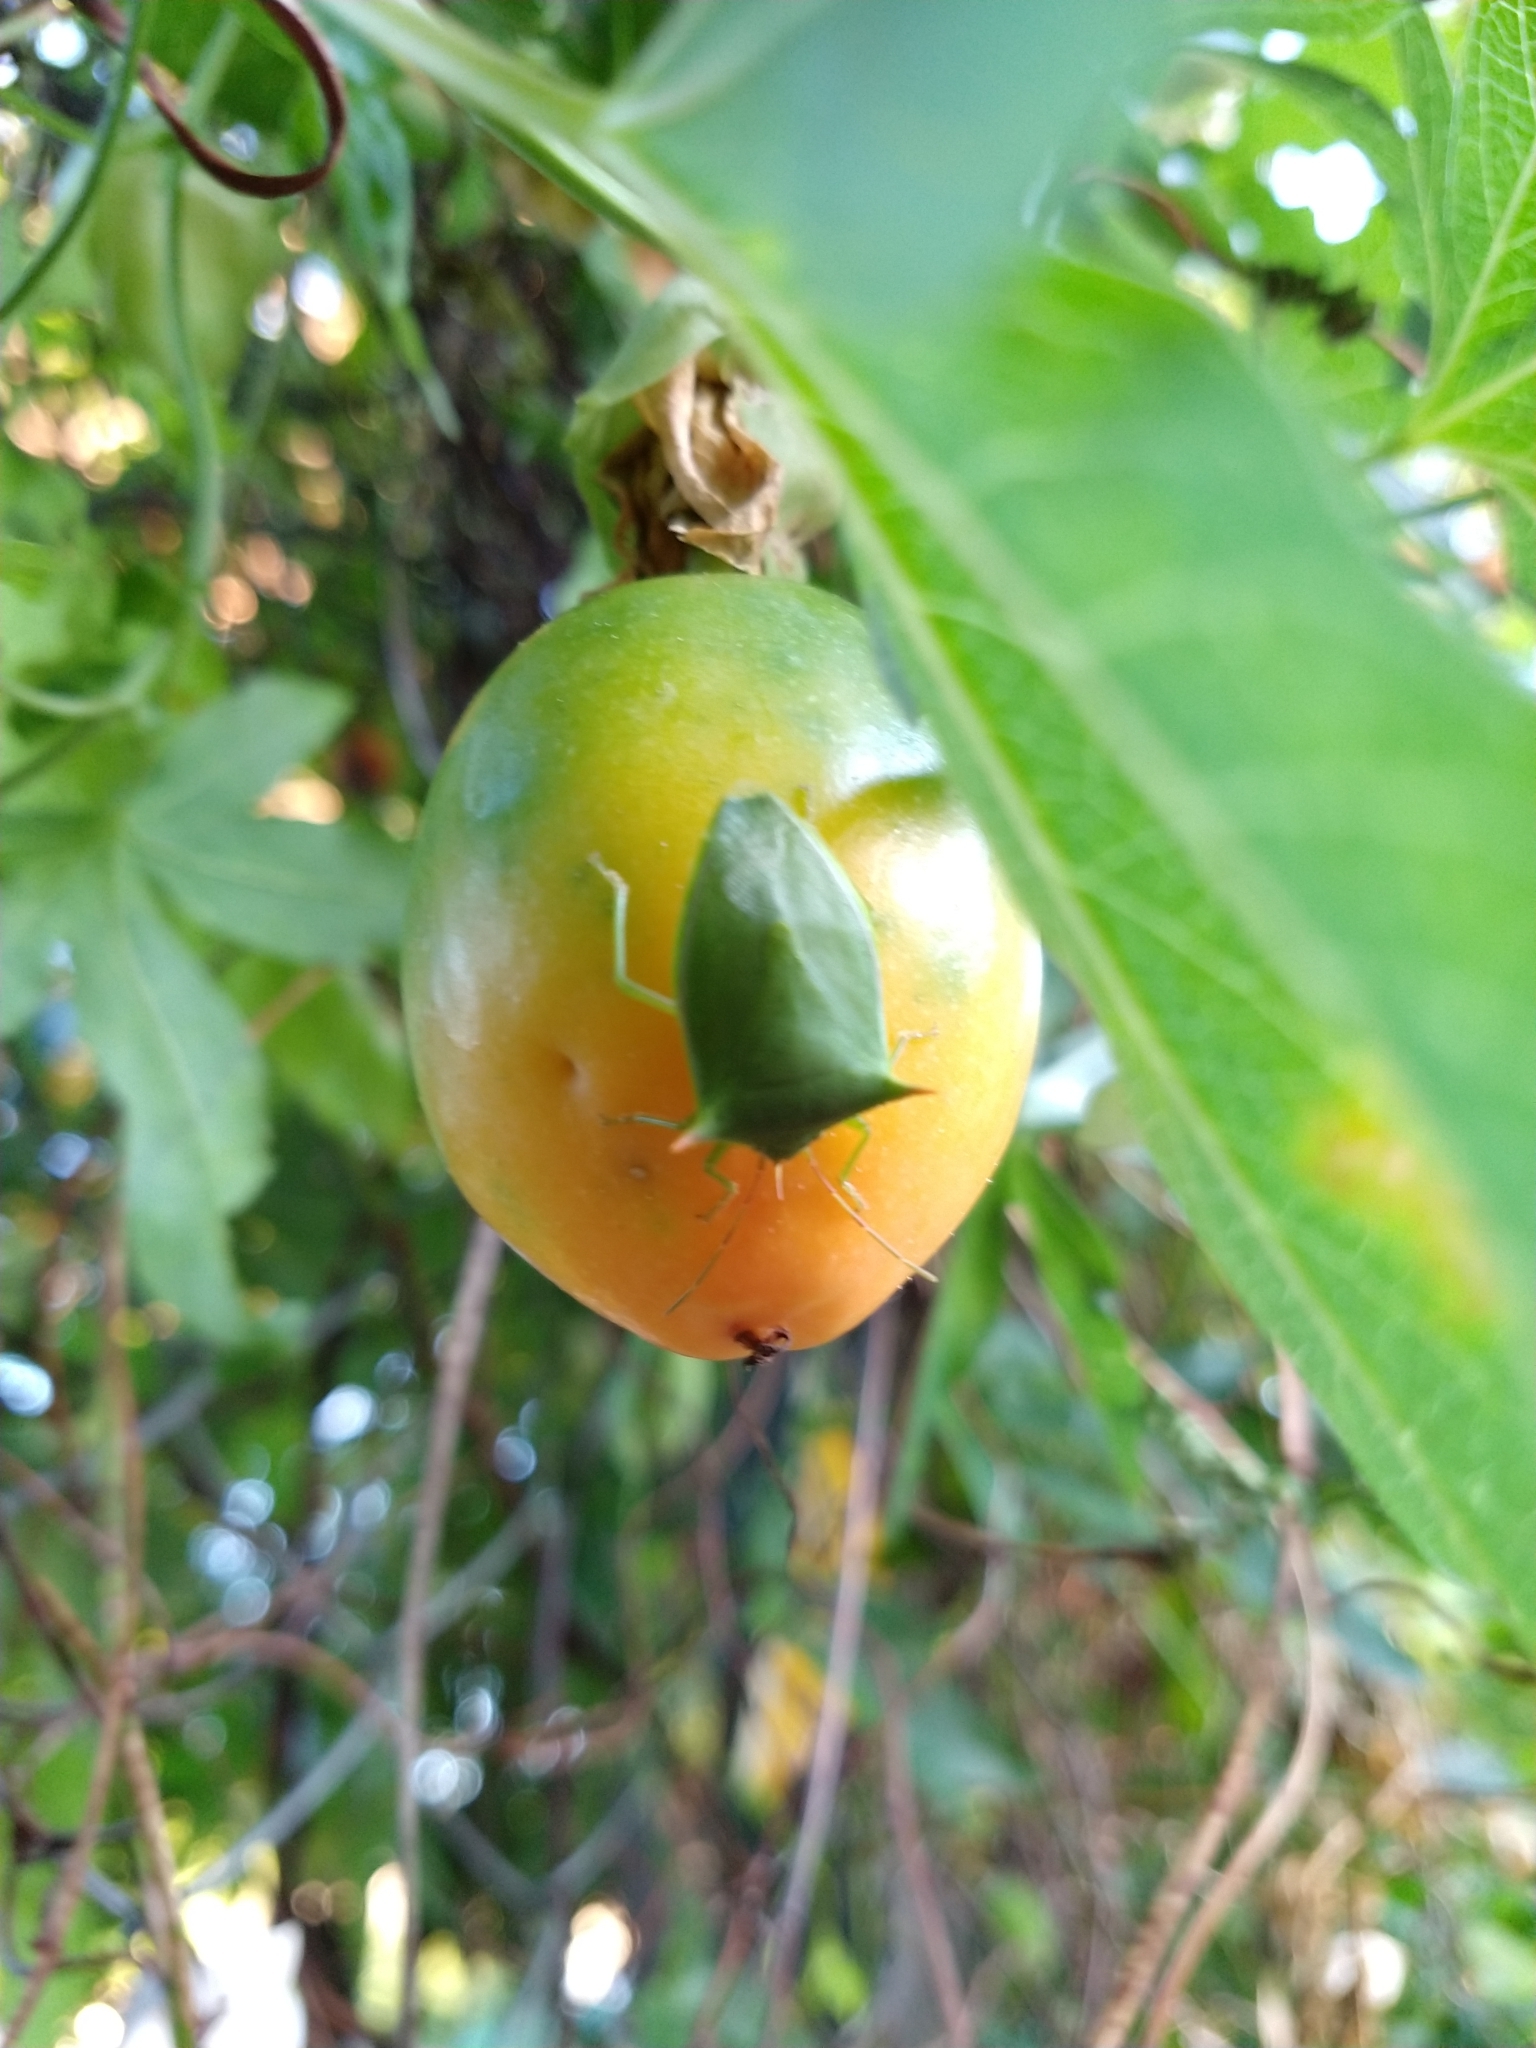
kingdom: Animalia
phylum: Arthropoda
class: Insecta
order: Hemiptera
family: Pentatomidae
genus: Loxa
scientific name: Loxa deducta
